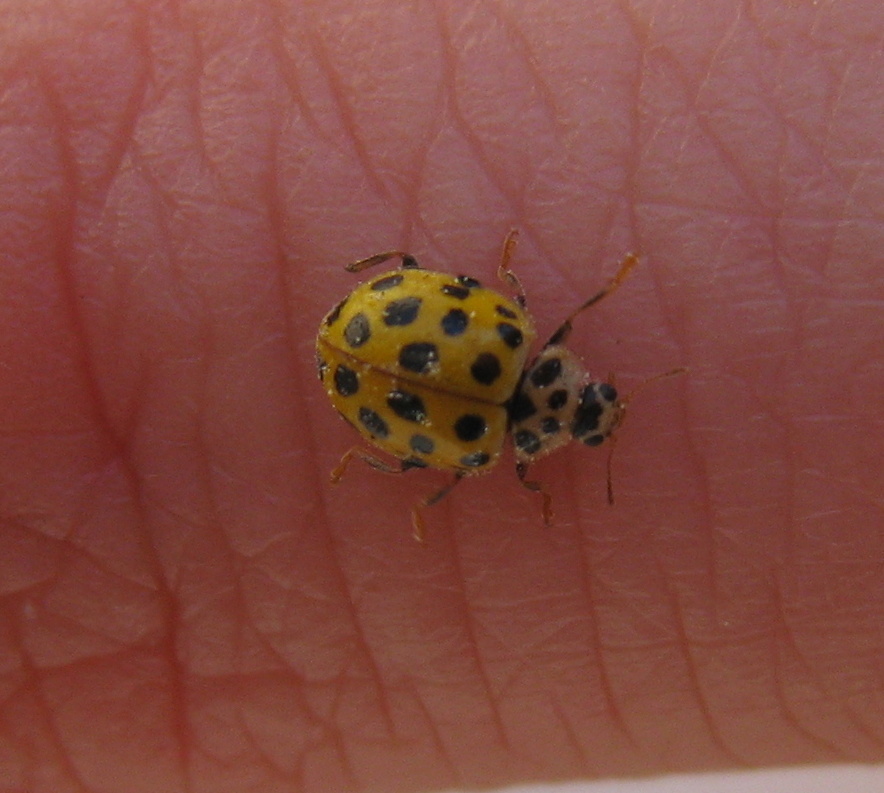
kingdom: Animalia
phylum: Arthropoda
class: Insecta
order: Coleoptera
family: Coccinellidae
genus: Psyllobora
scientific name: Psyllobora vigintiduopunctata
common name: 22-spot ladybird
